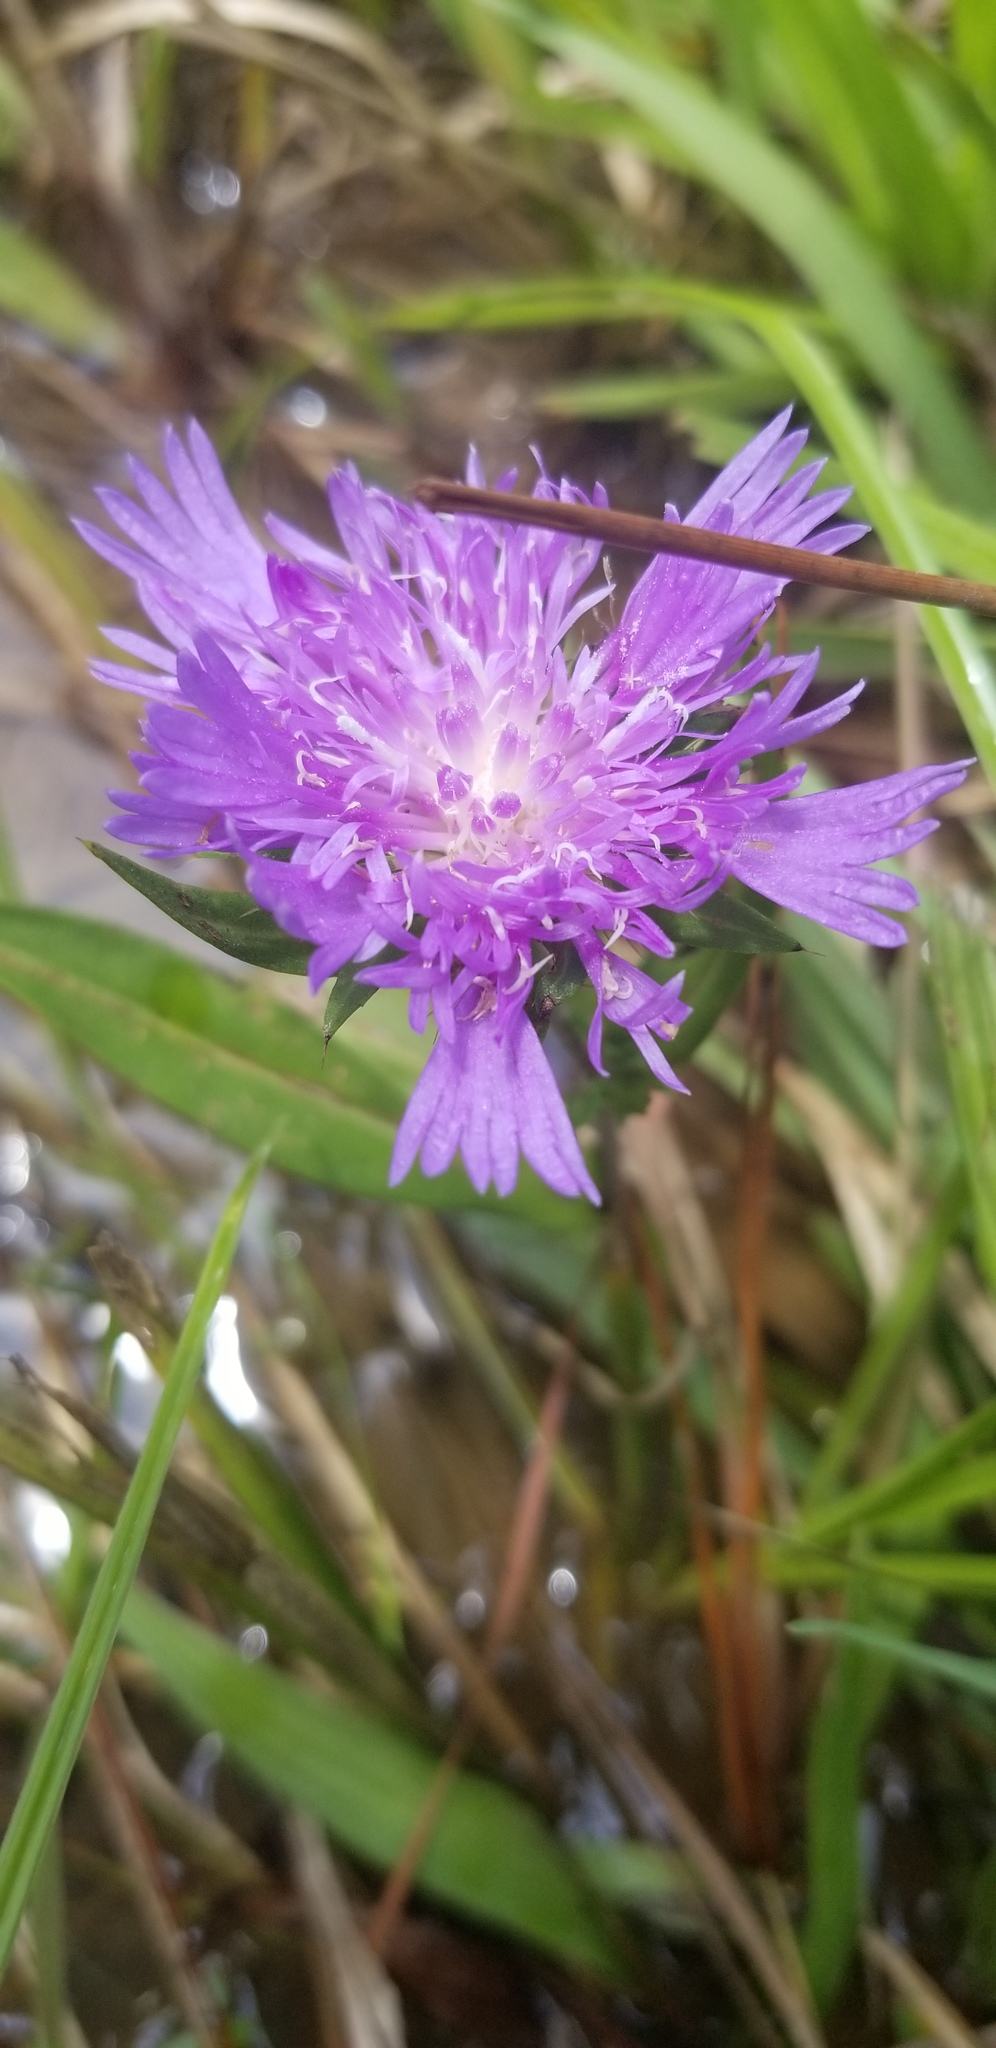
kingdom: Plantae
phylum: Tracheophyta
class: Magnoliopsida
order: Asterales
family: Asteraceae
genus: Stokesia
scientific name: Stokesia laevis
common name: Stokes'-aster
